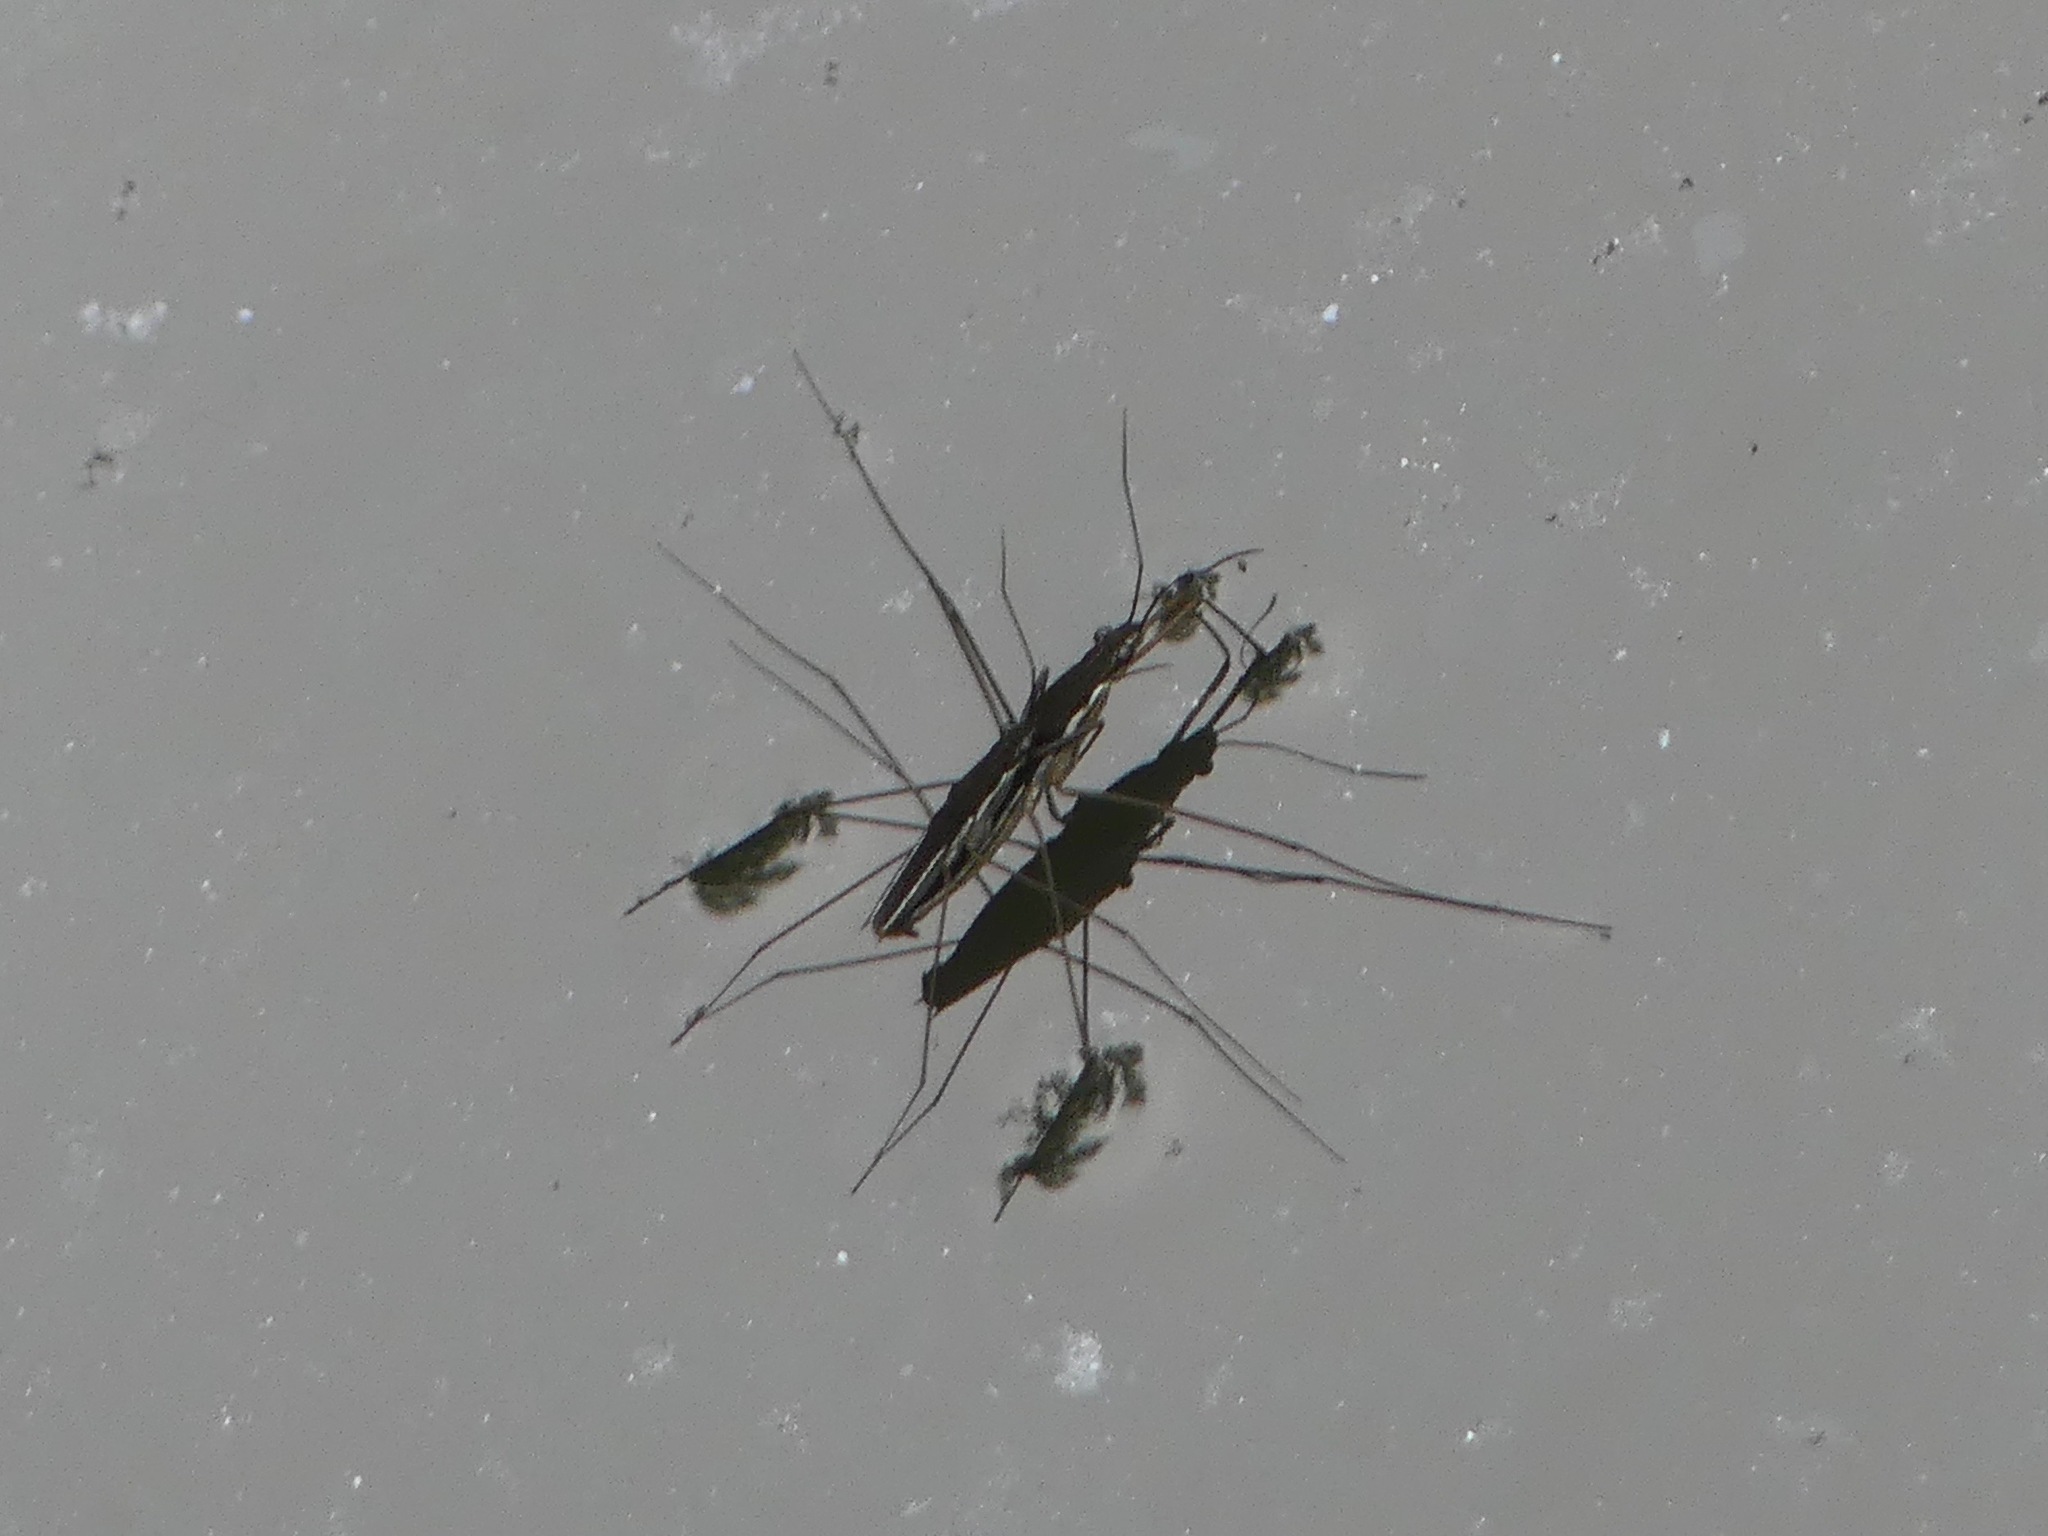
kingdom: Animalia
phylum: Arthropoda
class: Insecta
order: Hemiptera
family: Gerridae
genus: Limnoporus
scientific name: Limnoporus canaliculatus
